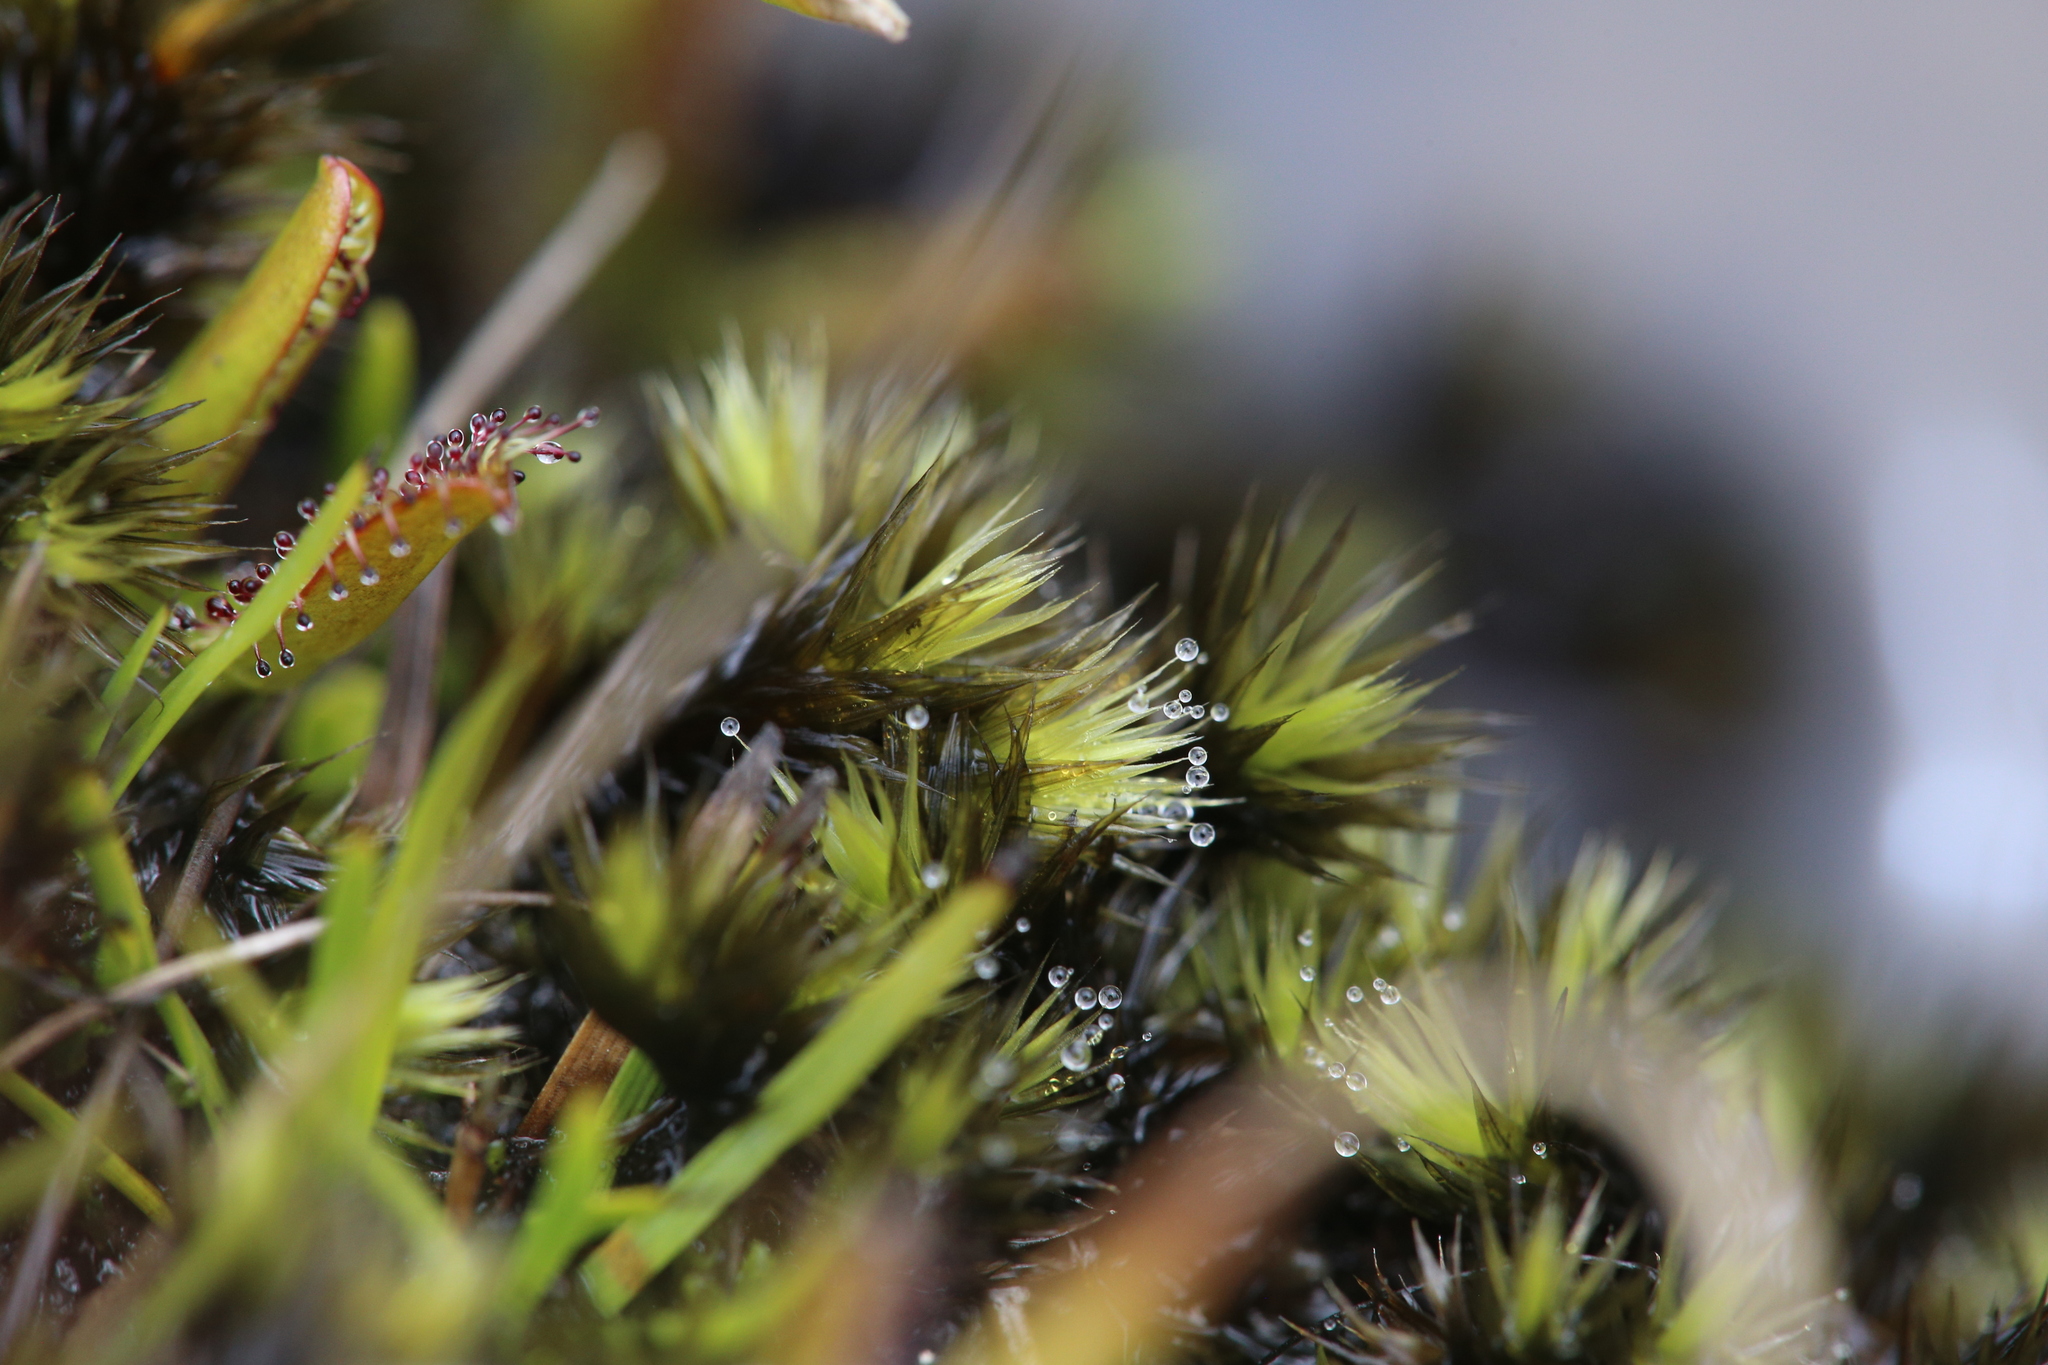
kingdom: Plantae
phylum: Bryophyta
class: Bryopsida
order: Bartramiales
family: Bartramiaceae
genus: Breutelia
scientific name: Breutelia pendula
